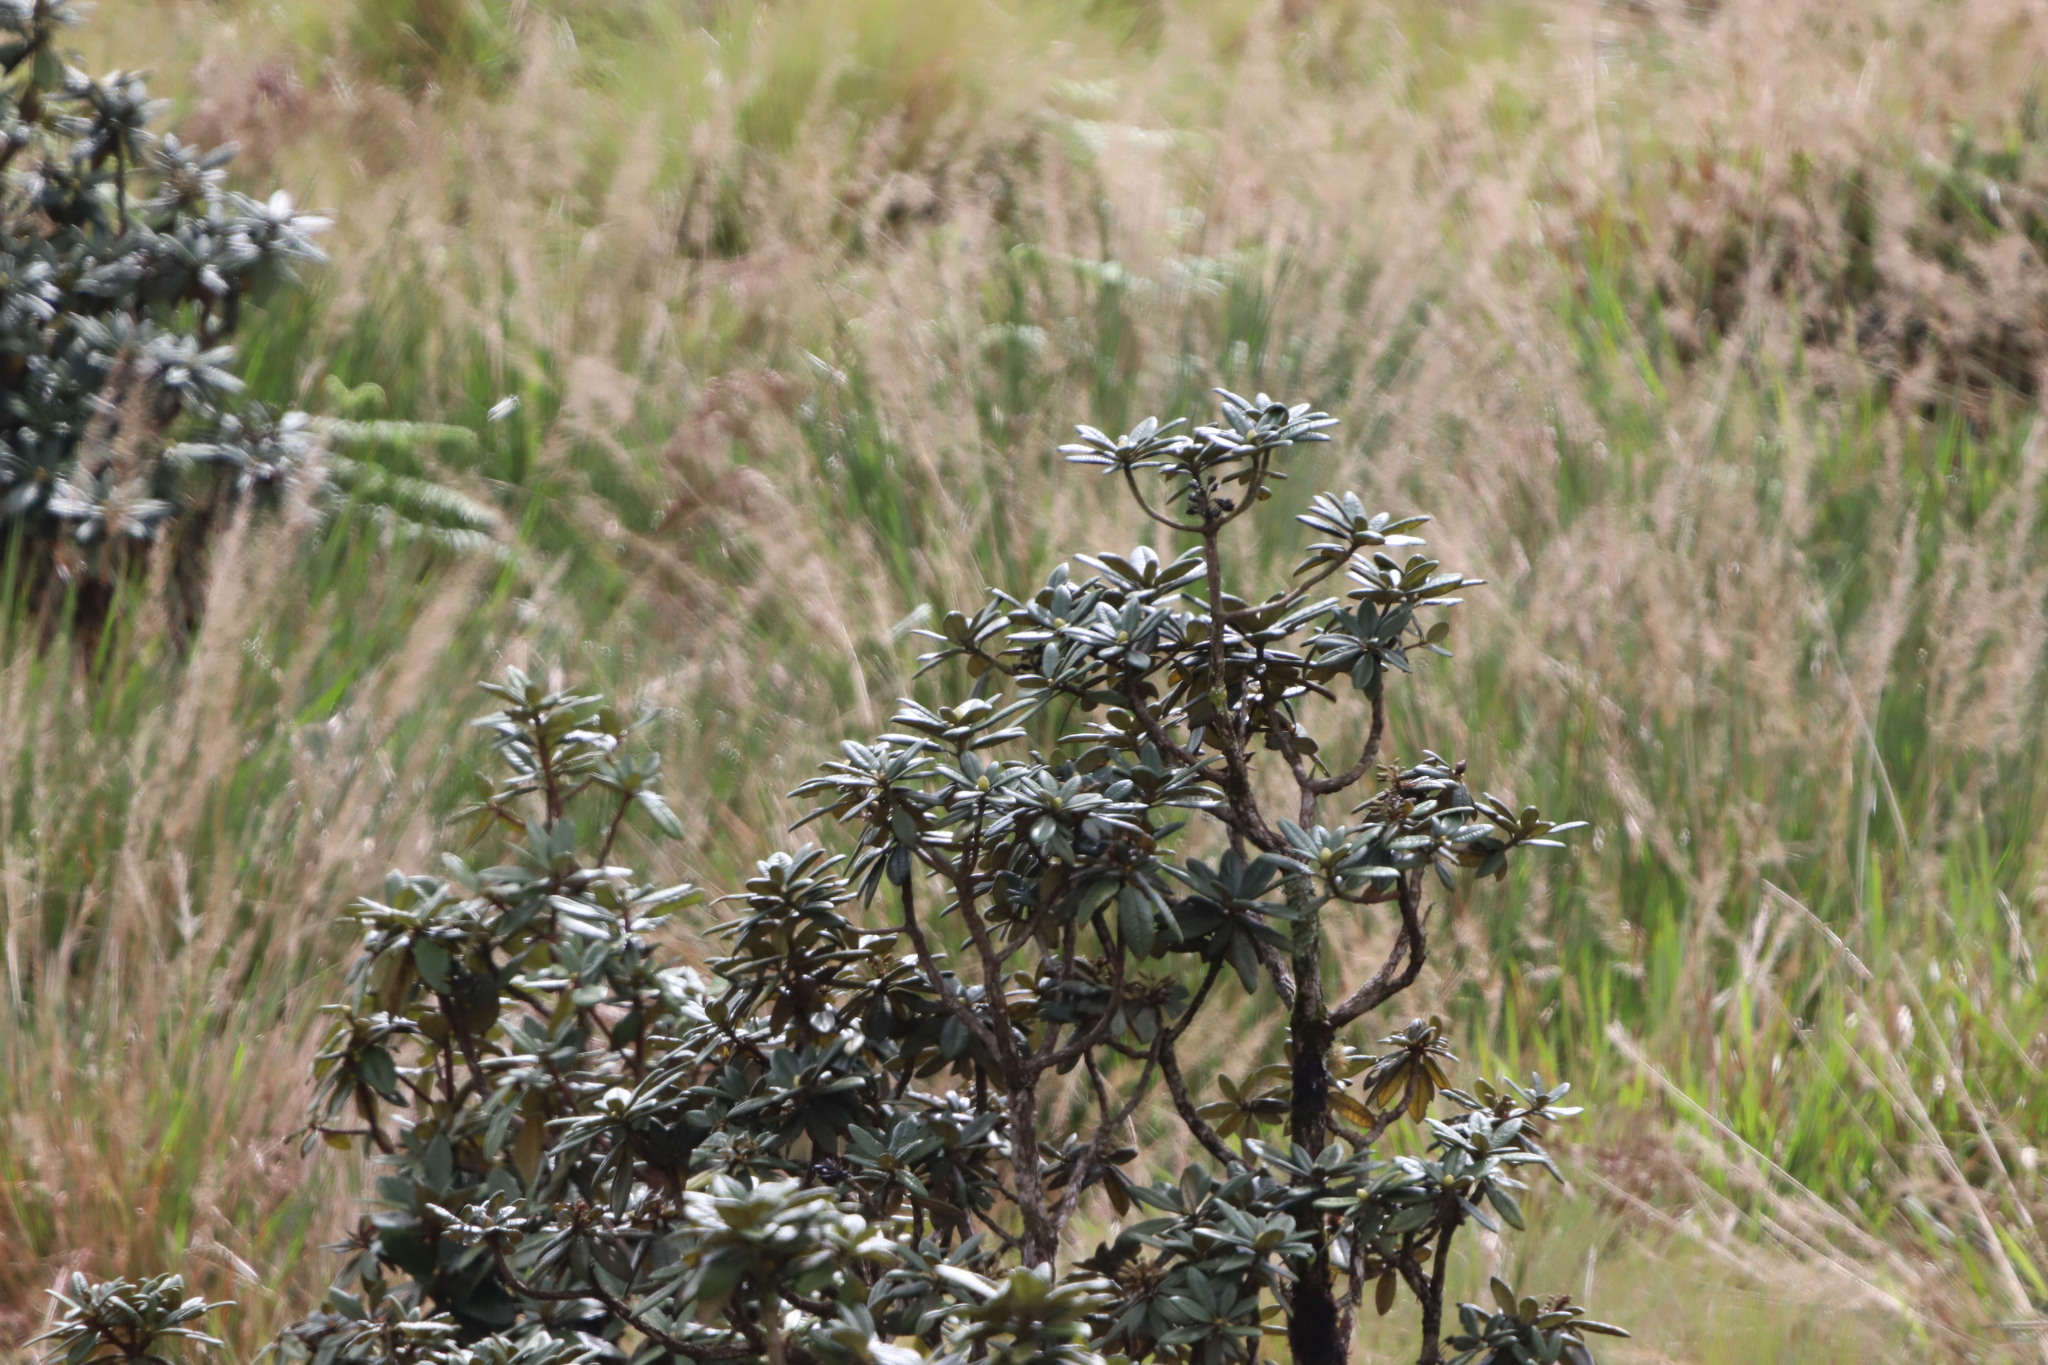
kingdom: Plantae
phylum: Tracheophyta
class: Magnoliopsida
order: Ericales
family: Ericaceae
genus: Rhododendron
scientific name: Rhododendron arboreum
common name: Tree rhododendron
